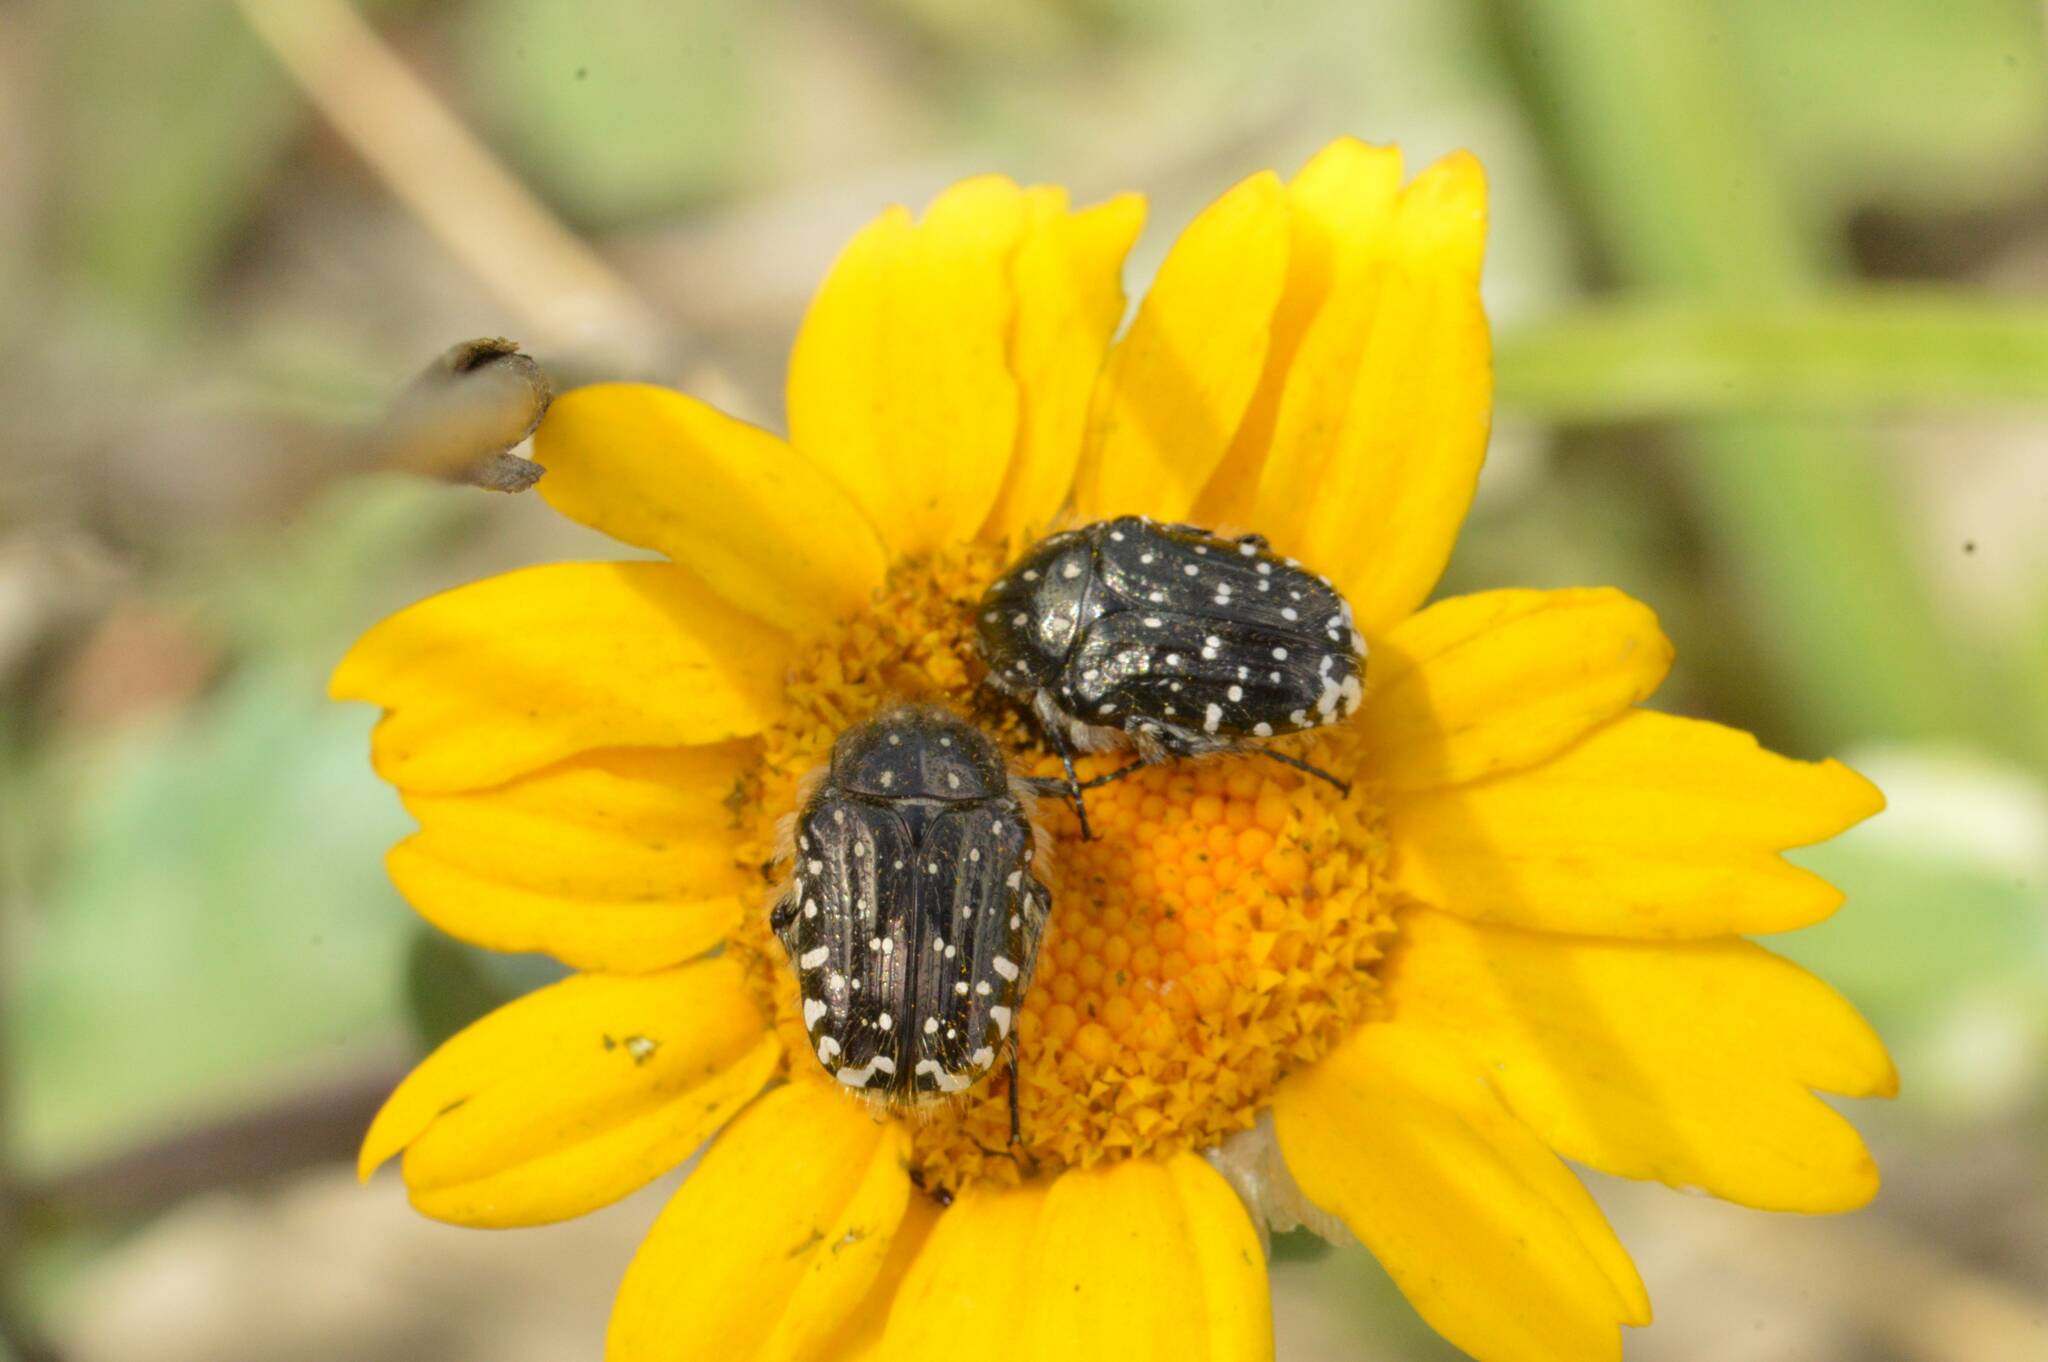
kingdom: Animalia
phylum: Arthropoda
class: Insecta
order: Coleoptera
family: Scarabaeidae
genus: Oxythyrea
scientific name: Oxythyrea funesta
